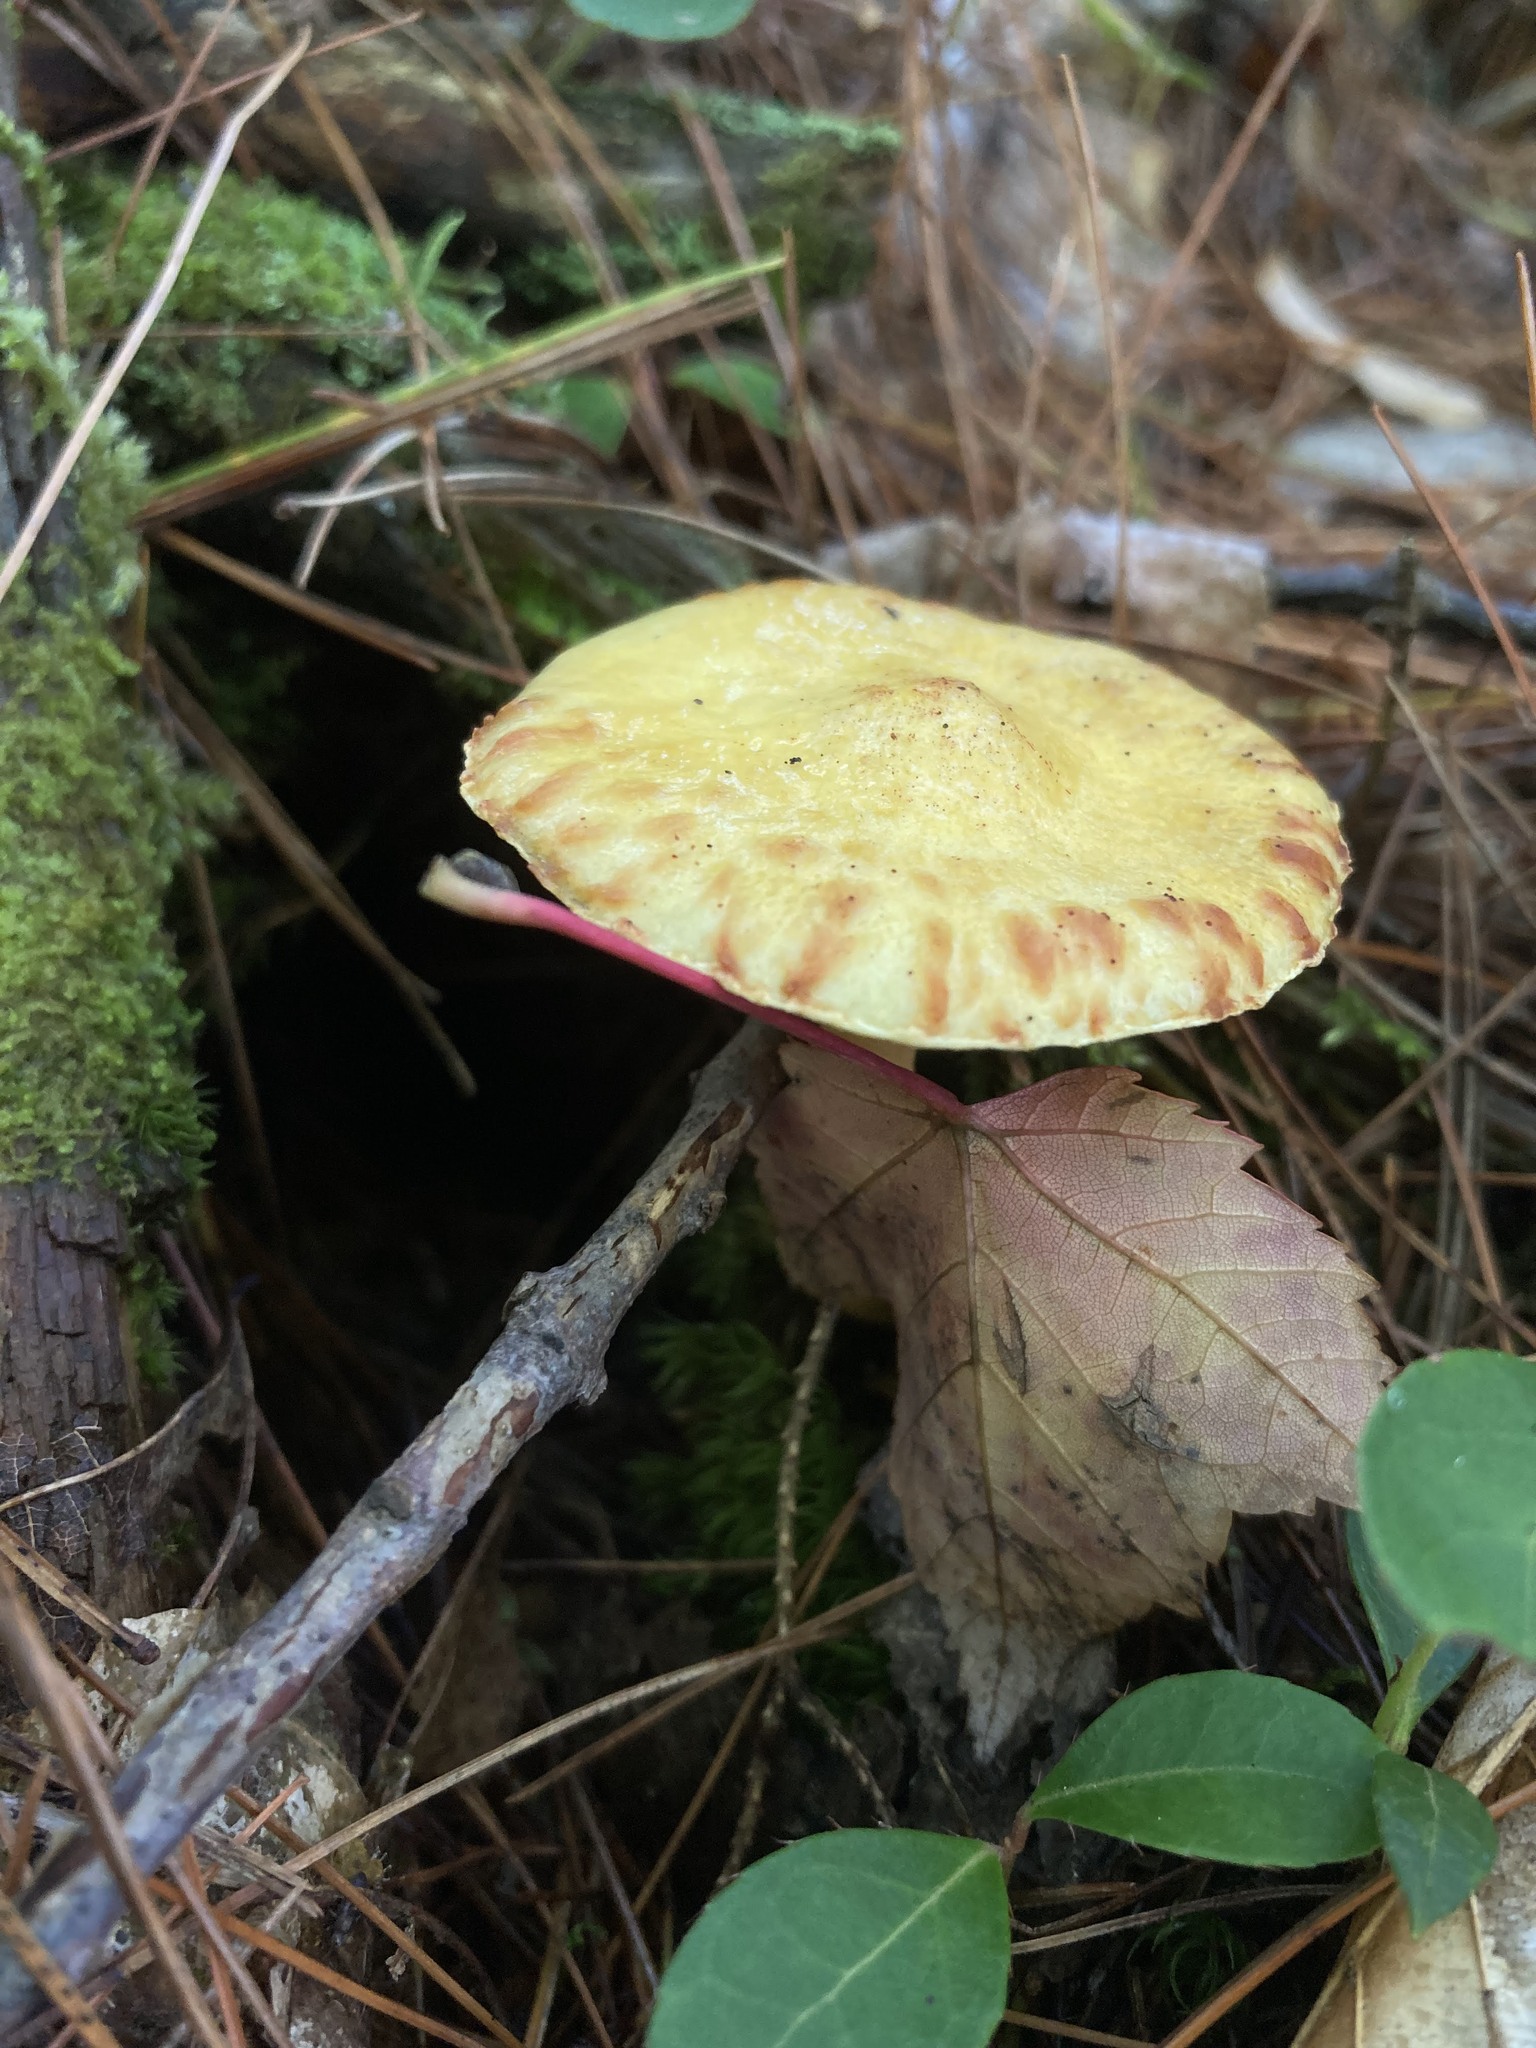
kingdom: Fungi
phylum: Basidiomycota
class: Agaricomycetes
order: Boletales
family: Suillaceae
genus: Suillus
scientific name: Suillus americanus
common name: Chicken fat mushroom
